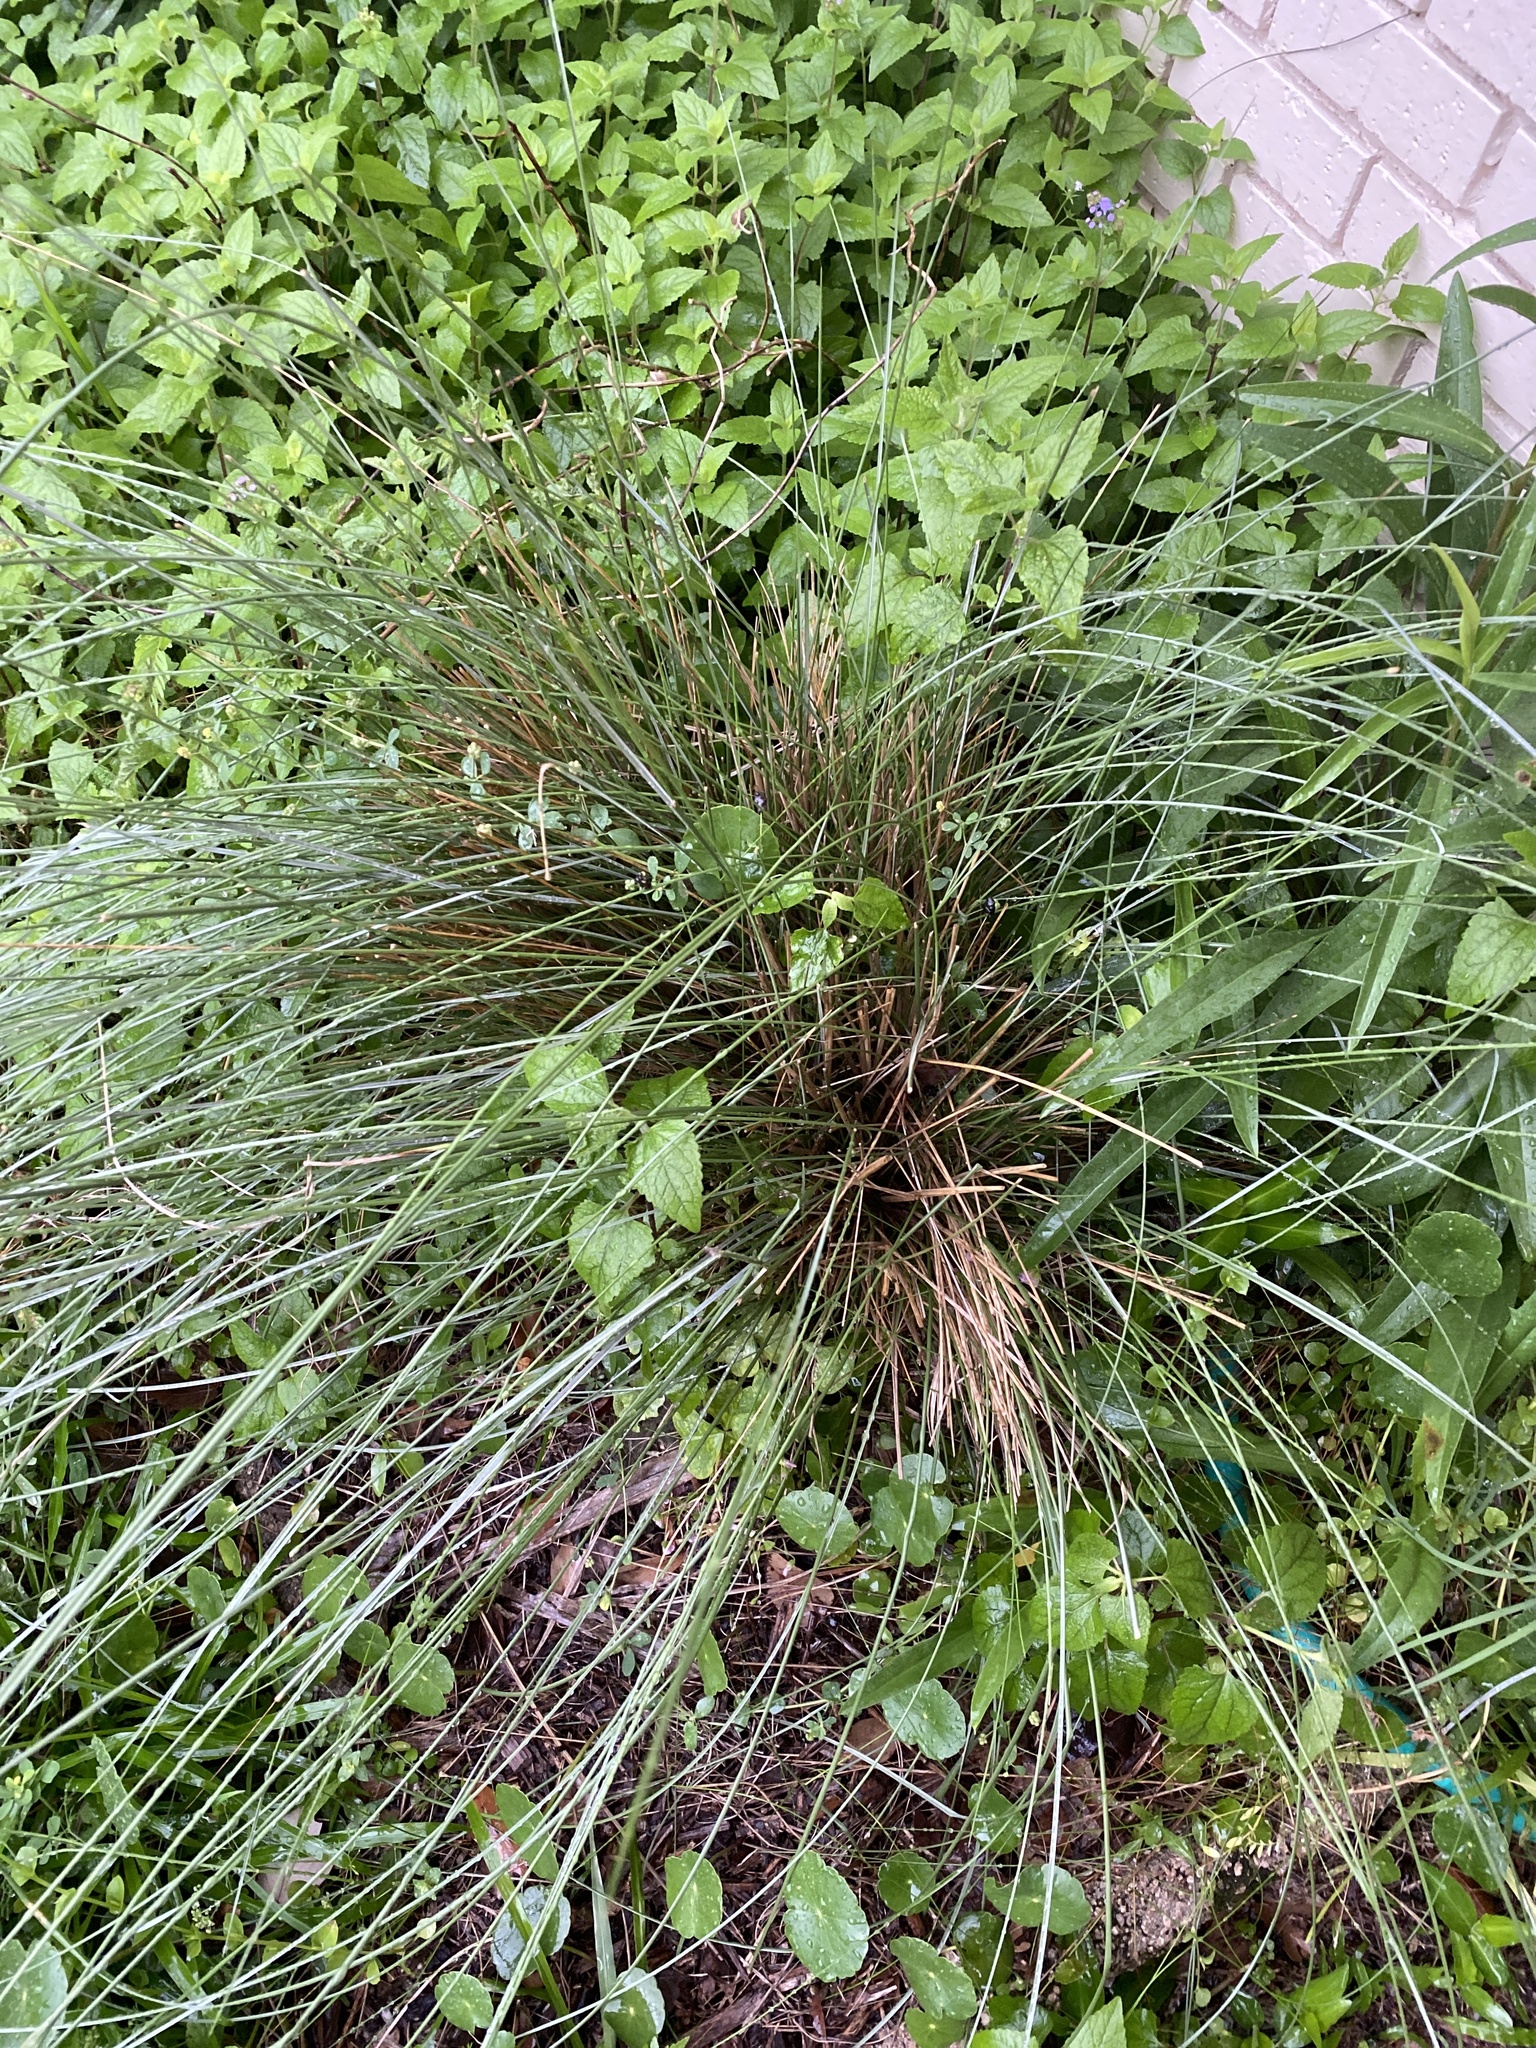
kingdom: Plantae
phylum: Tracheophyta
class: Liliopsida
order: Poales
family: Poaceae
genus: Muhlenbergia
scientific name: Muhlenbergia capillaris
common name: Purple grass
